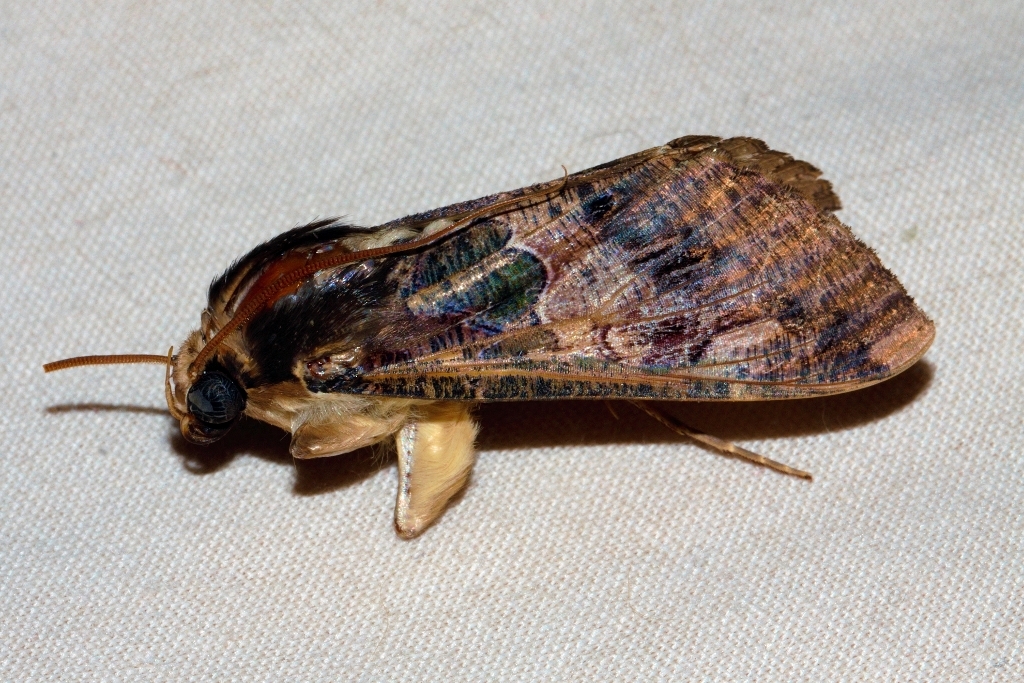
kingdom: Animalia
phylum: Arthropoda
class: Insecta
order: Lepidoptera
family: Erebidae
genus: Sphingomorpha
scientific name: Sphingomorpha chlorea
